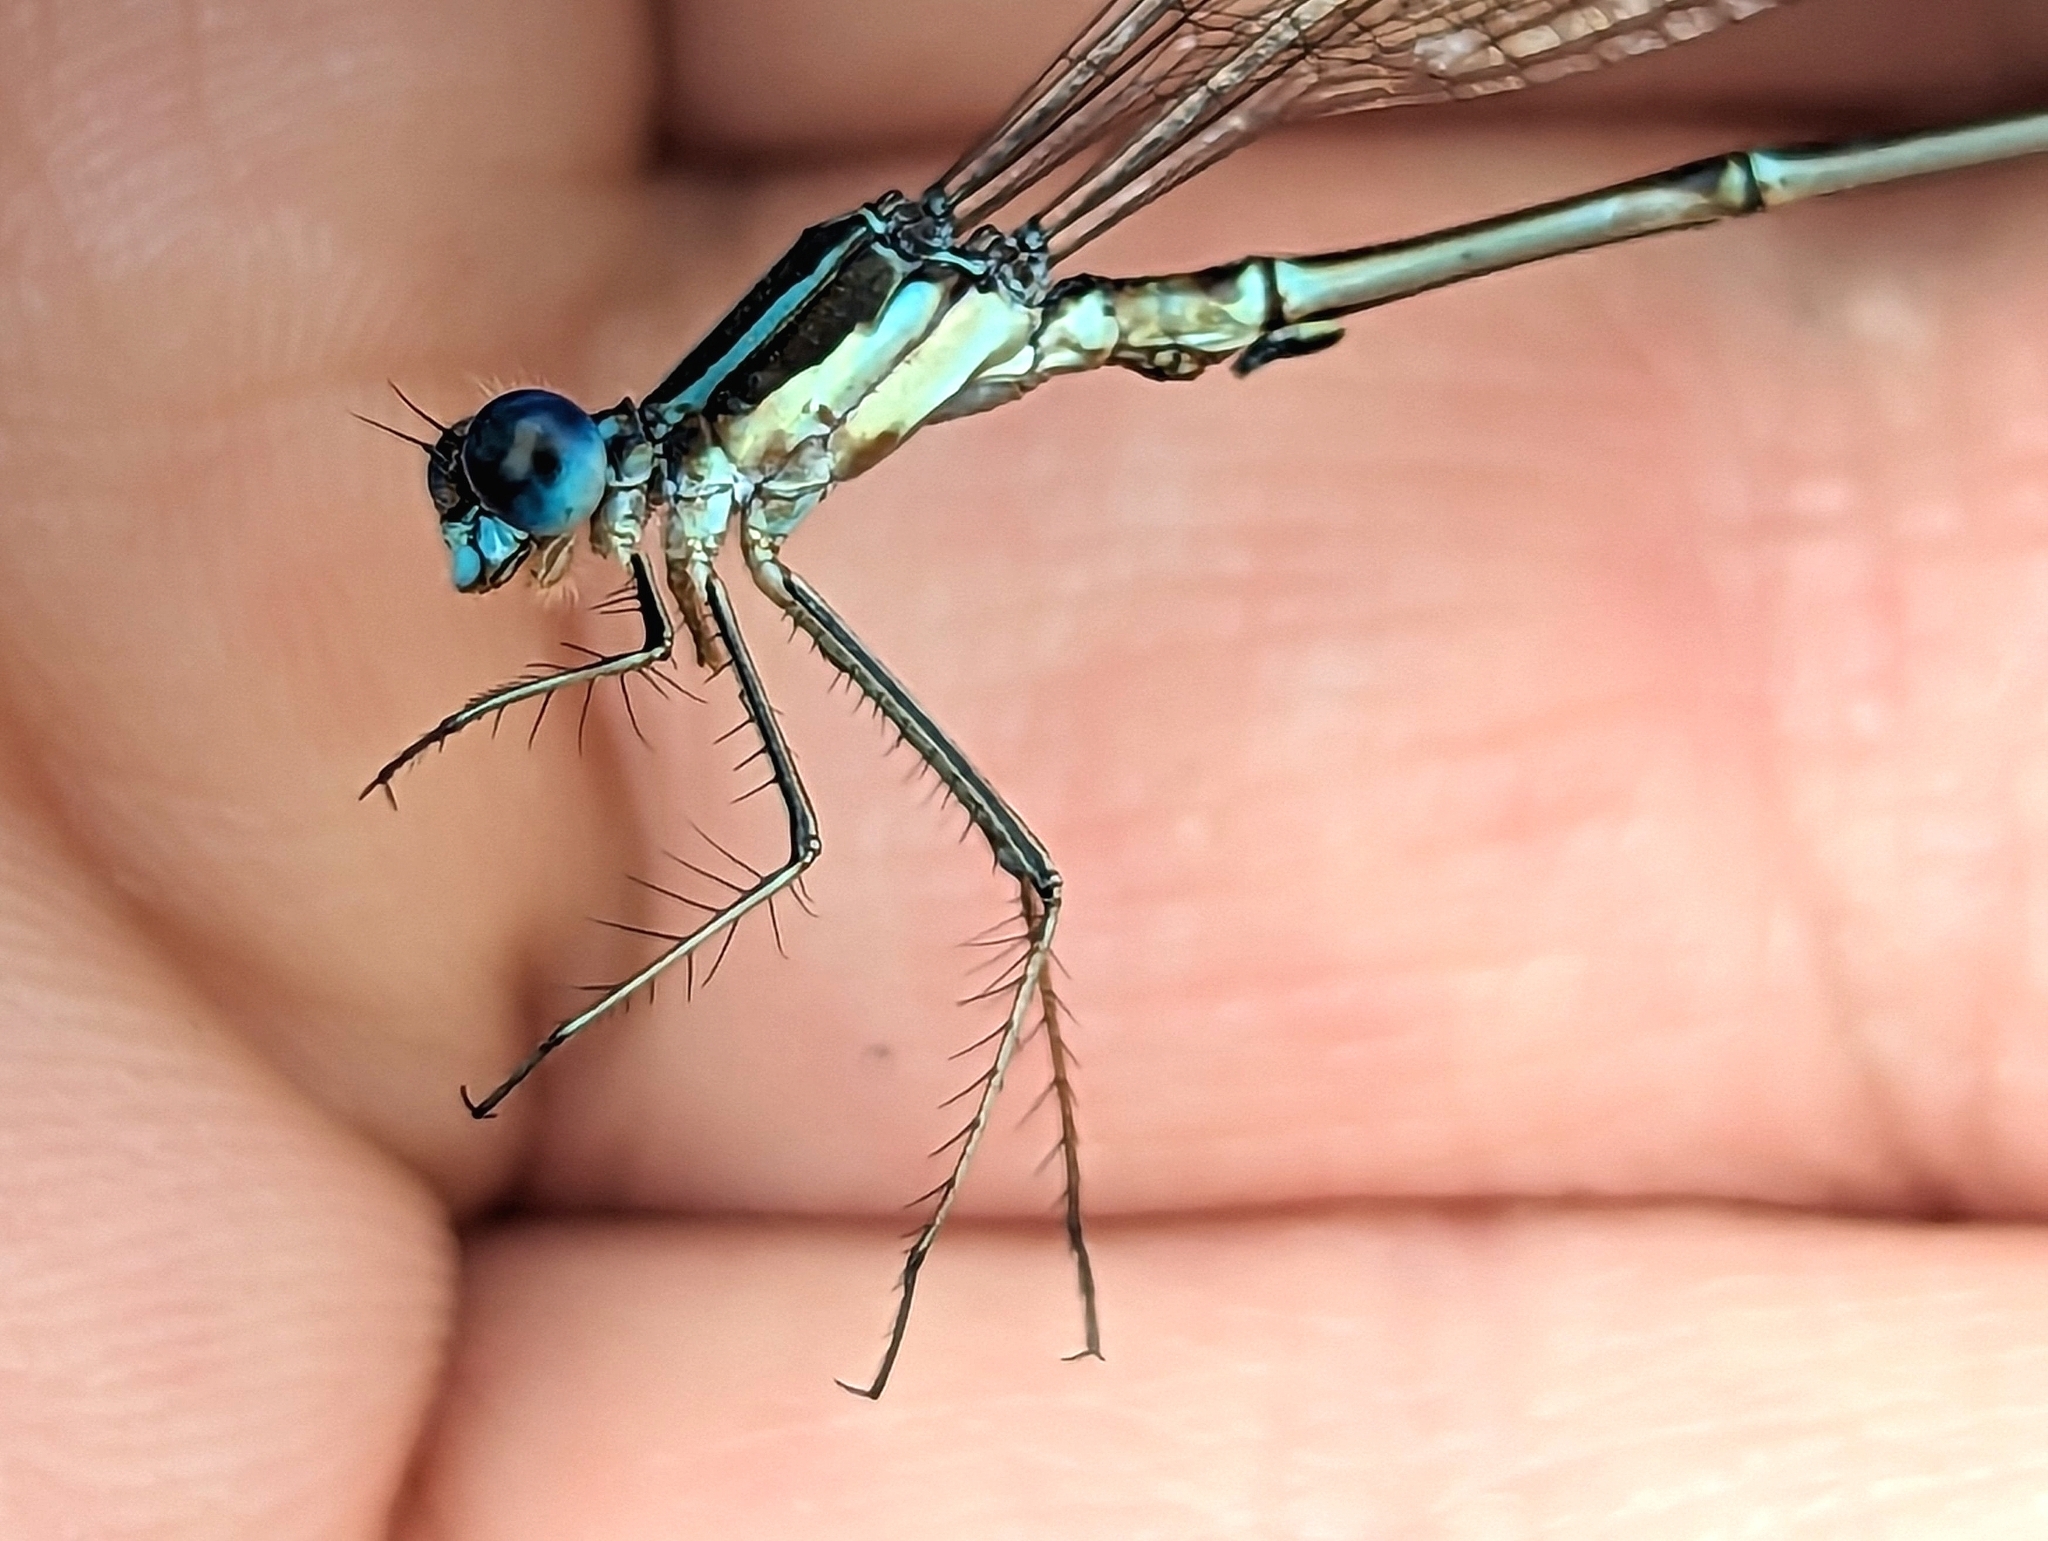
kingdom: Animalia
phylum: Arthropoda
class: Insecta
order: Odonata
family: Lestidae
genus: Lestes
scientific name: Lestes rectangularis
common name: Slender spreadwing
